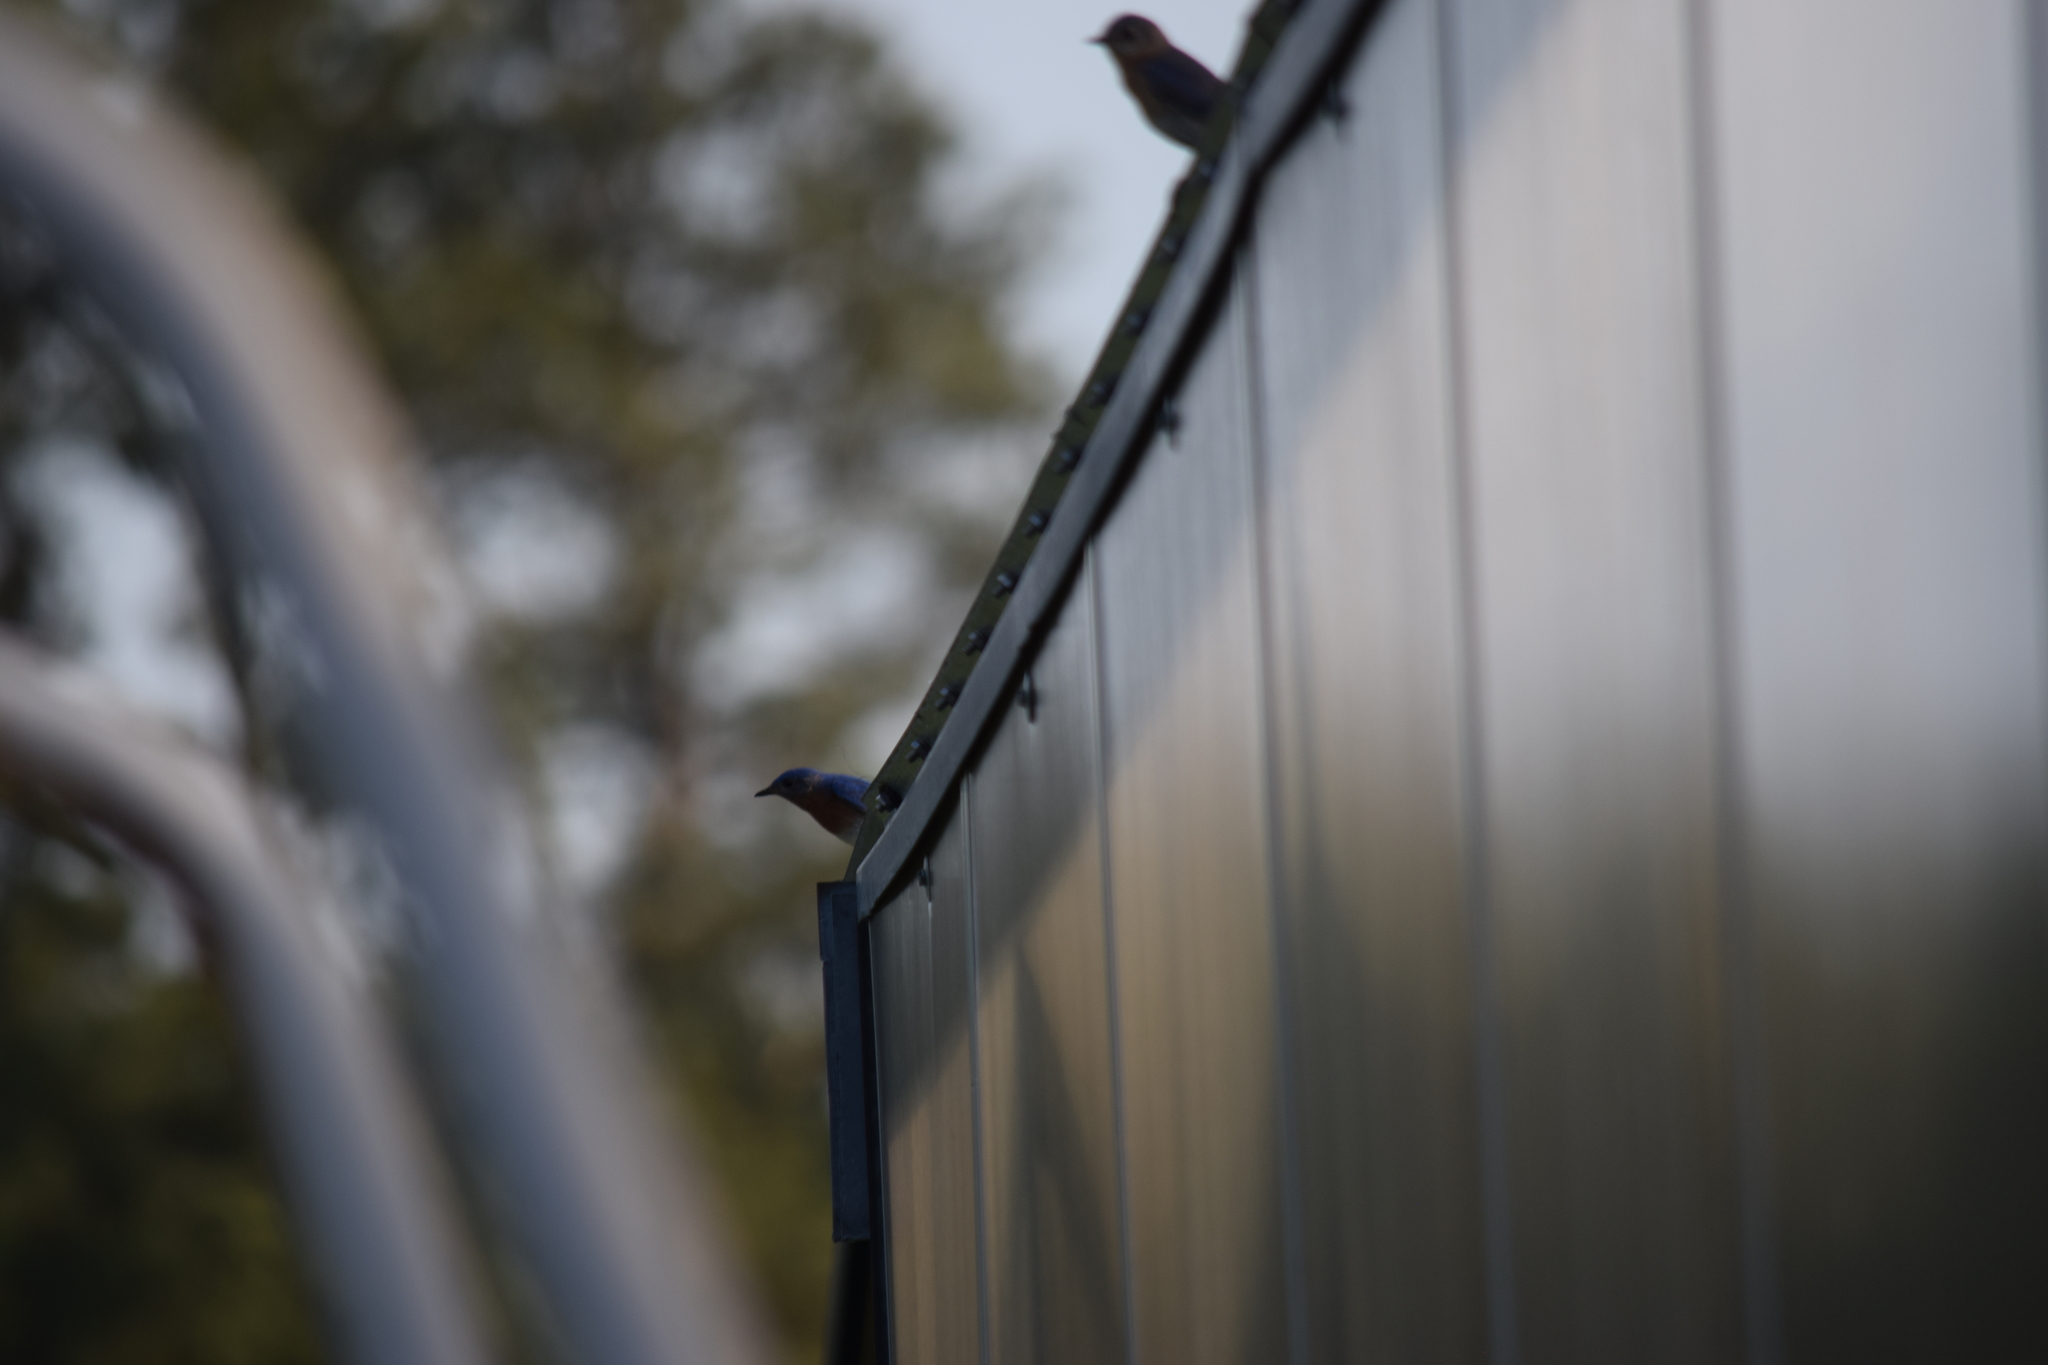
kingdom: Animalia
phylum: Chordata
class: Aves
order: Passeriformes
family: Turdidae
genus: Sialia
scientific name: Sialia sialis
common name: Eastern bluebird
